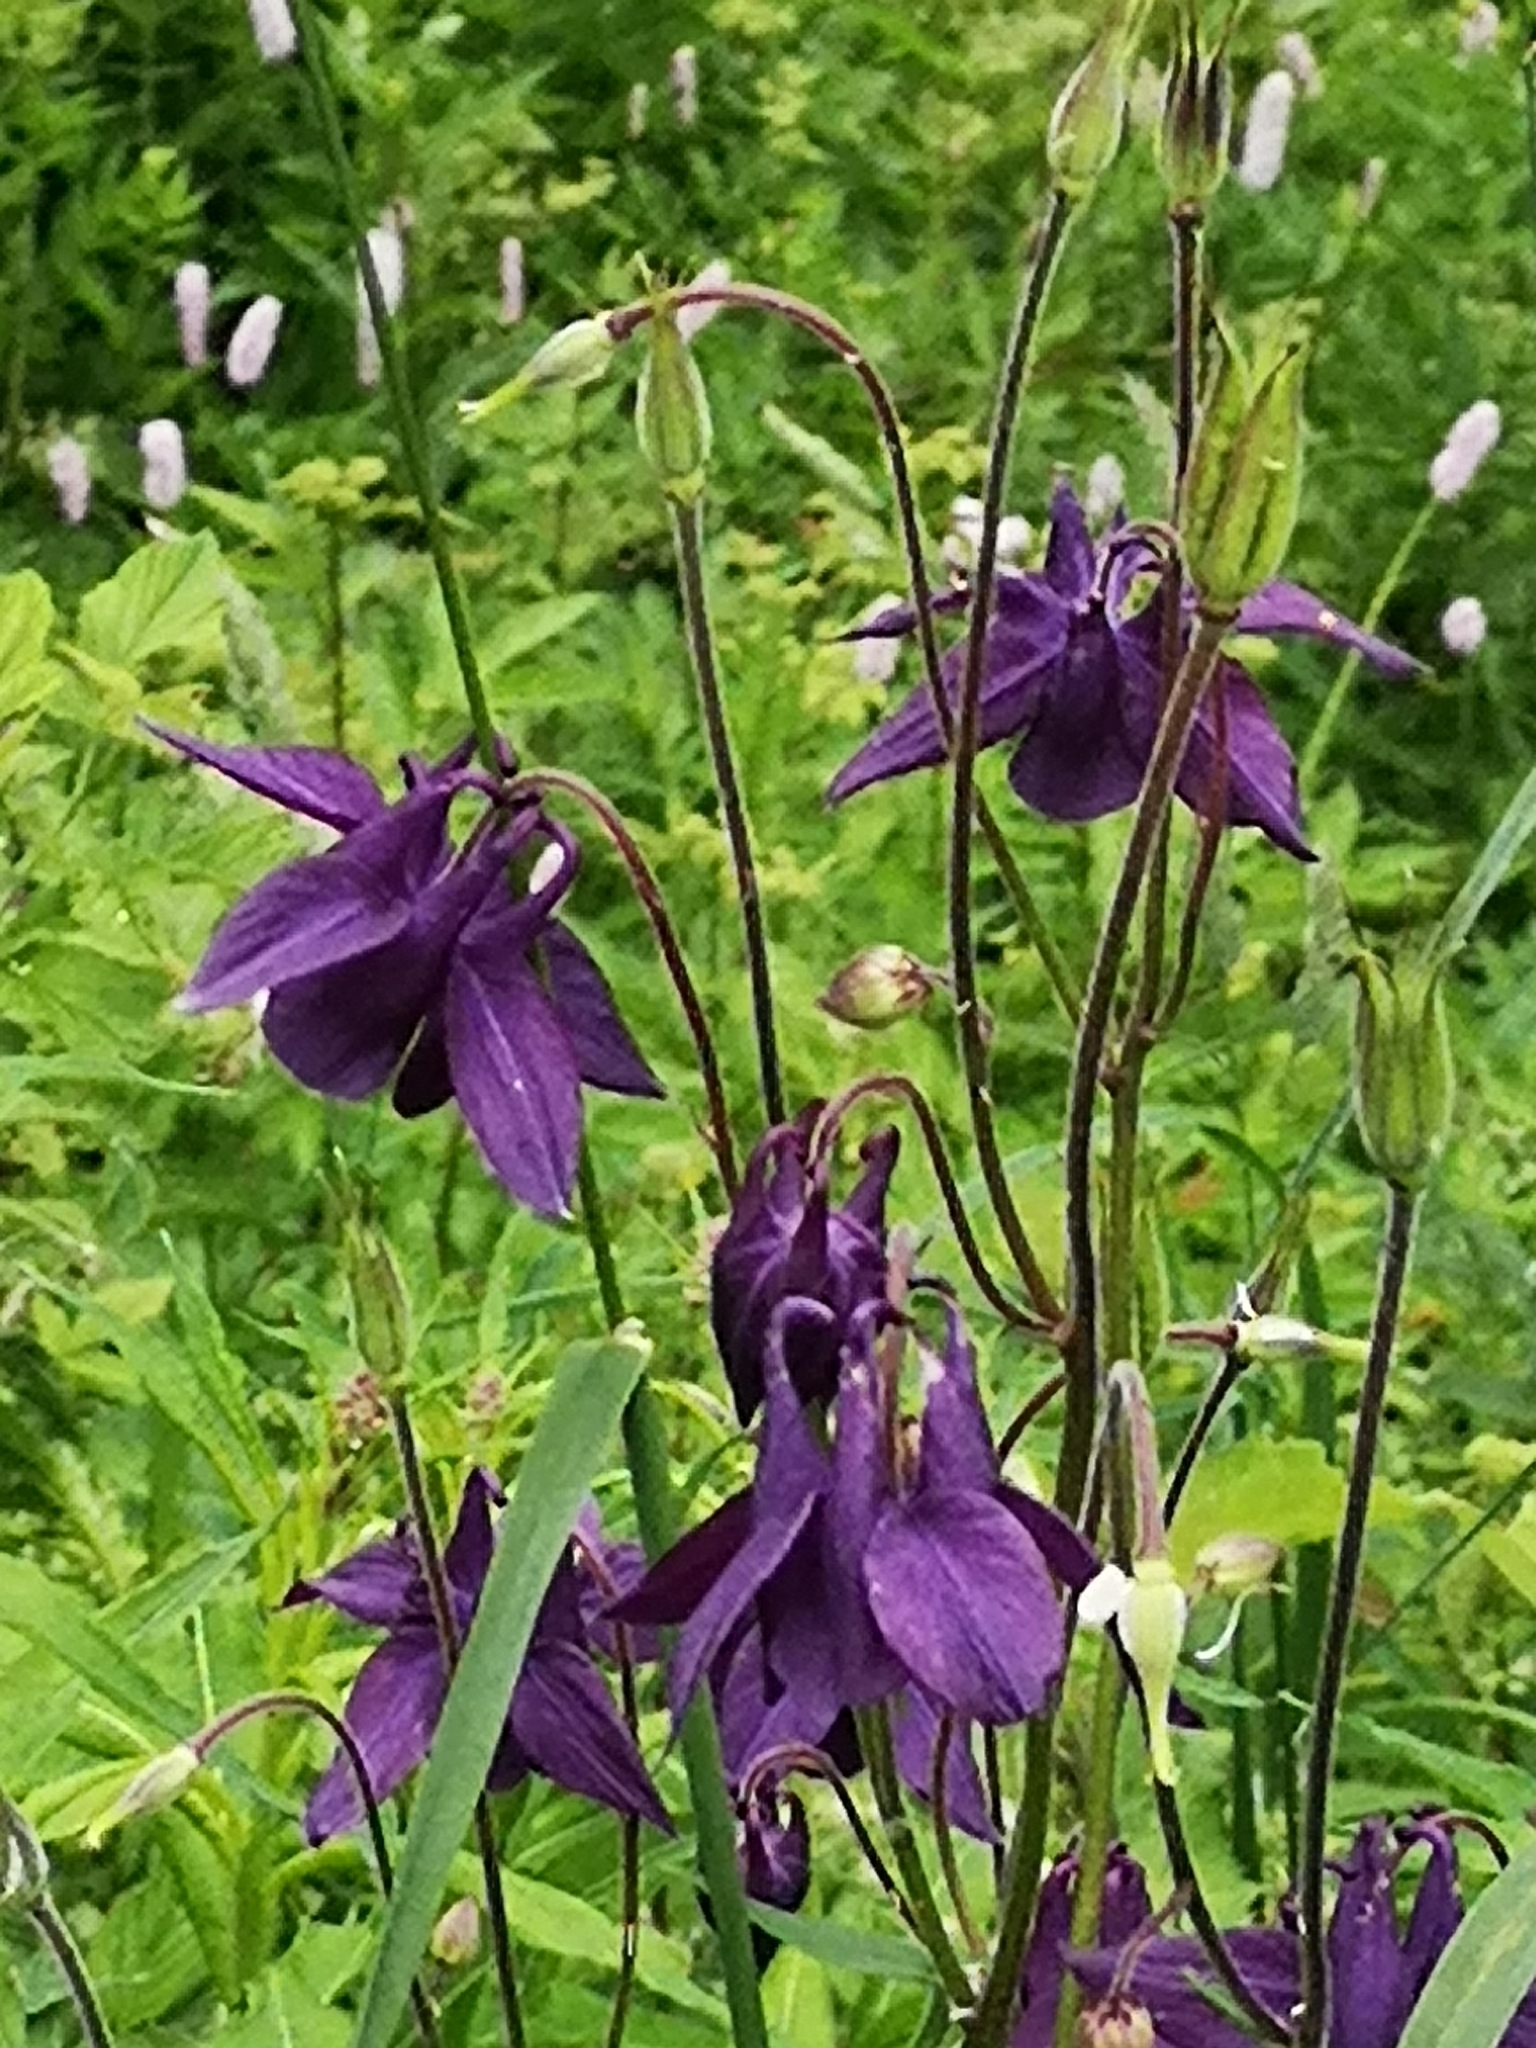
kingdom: Plantae
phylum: Tracheophyta
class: Magnoliopsida
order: Ranunculales
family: Ranunculaceae
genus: Aquilegia
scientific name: Aquilegia atrata
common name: Dark columbine
